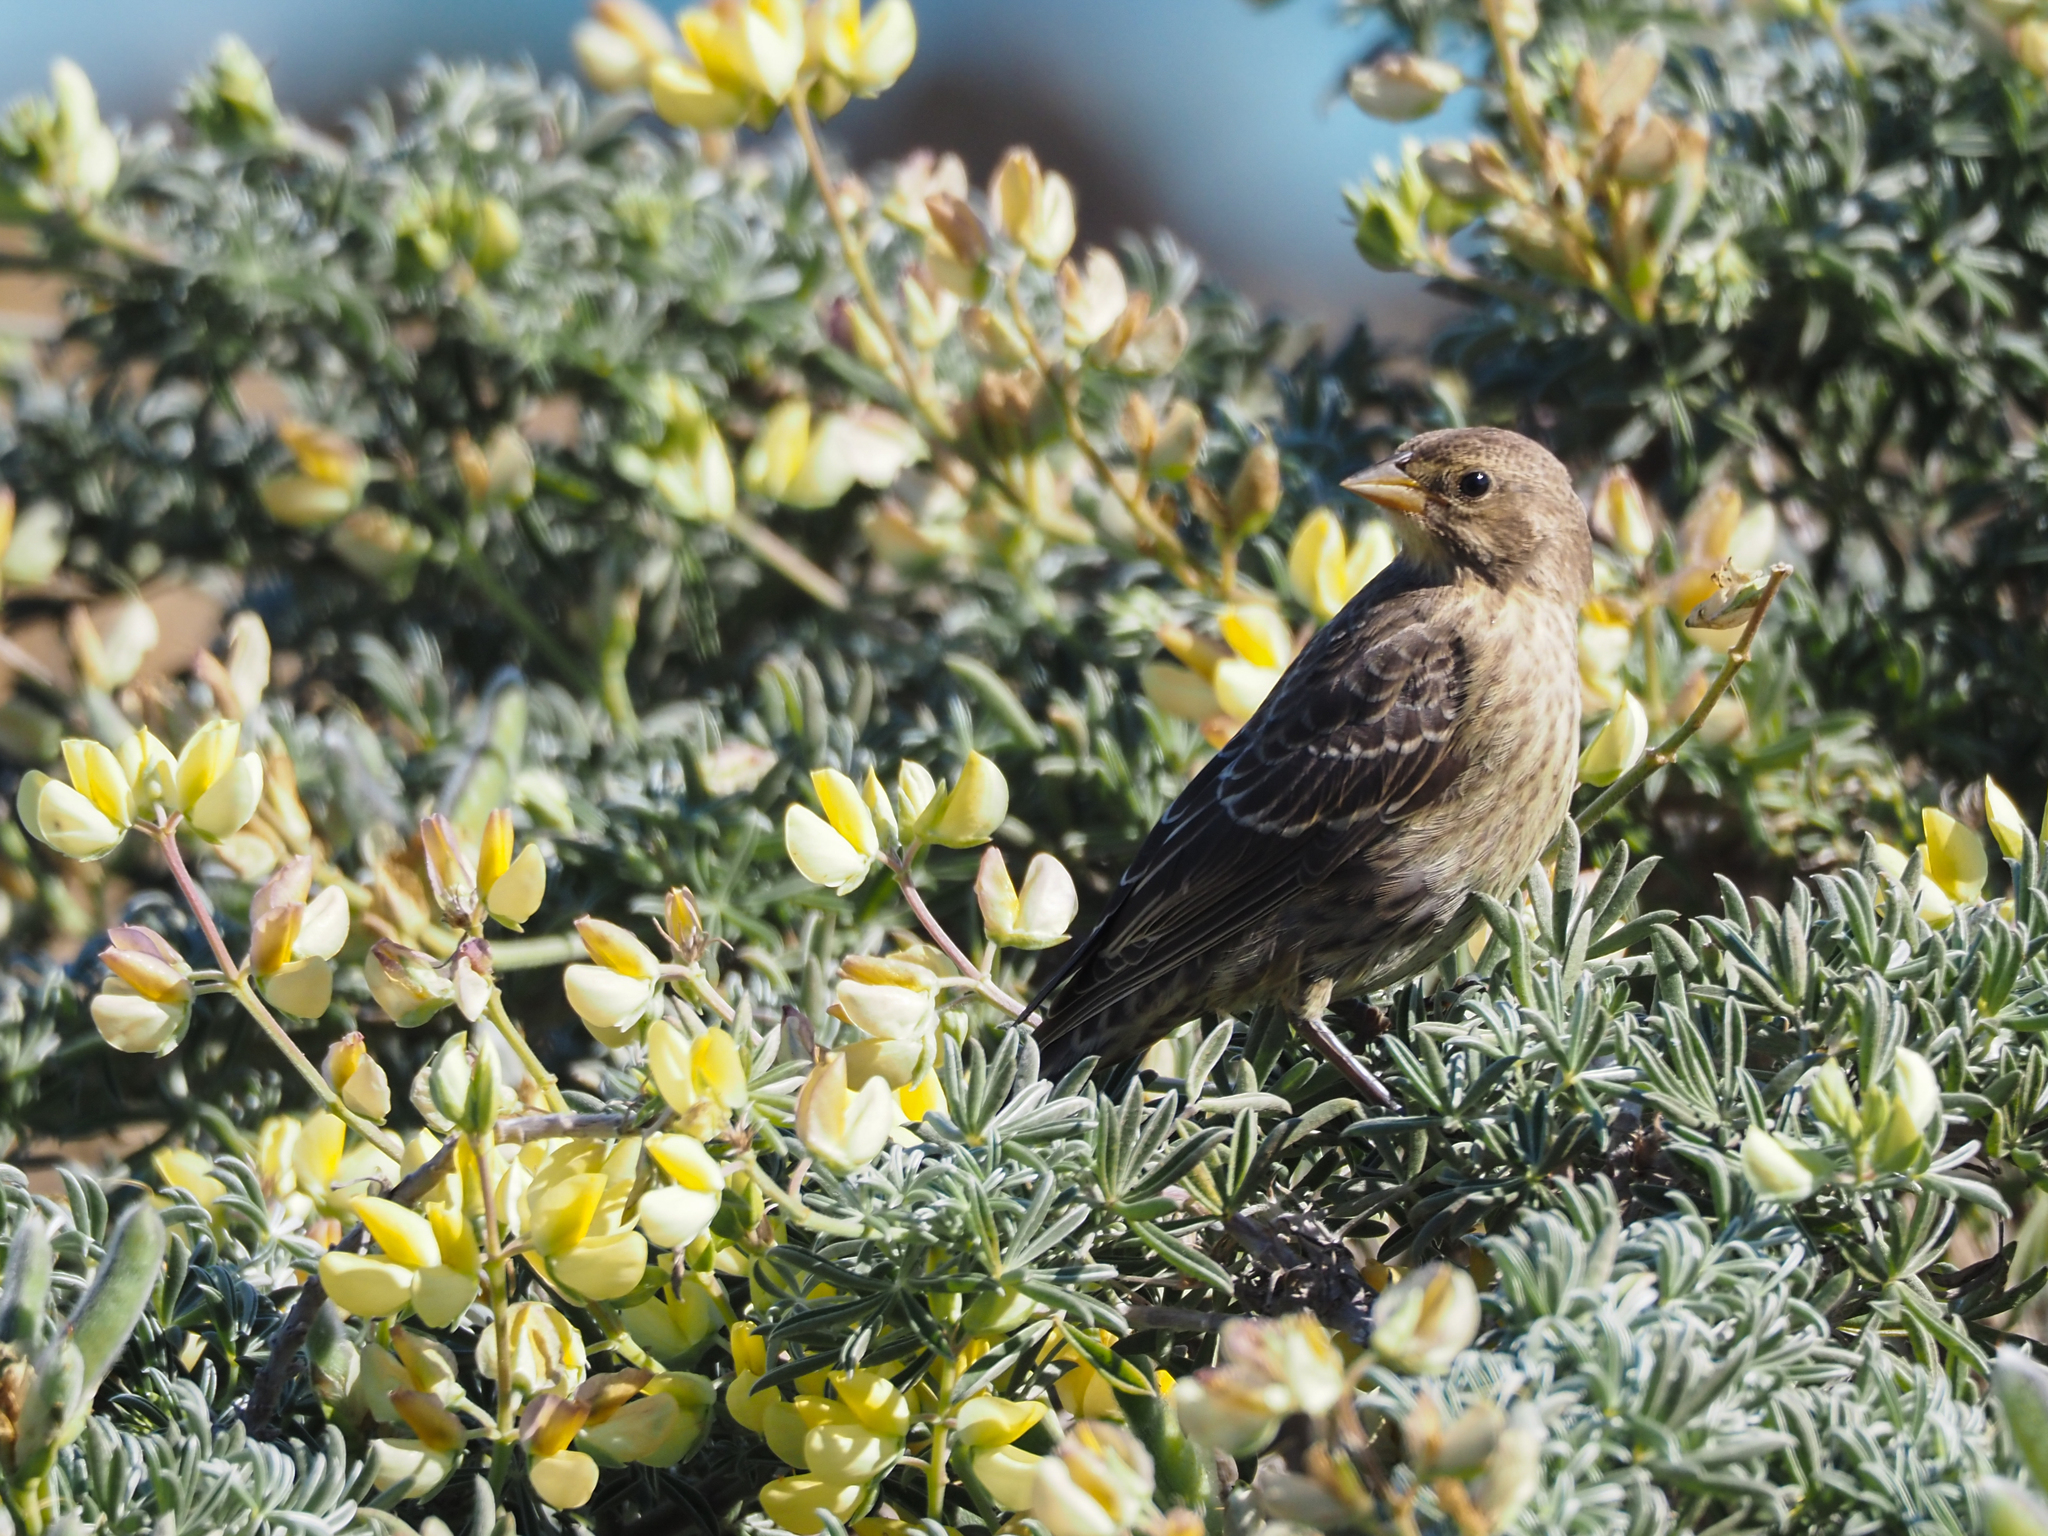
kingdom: Animalia
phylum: Chordata
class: Aves
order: Passeriformes
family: Icteridae
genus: Molothrus
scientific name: Molothrus ater
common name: Brown-headed cowbird
